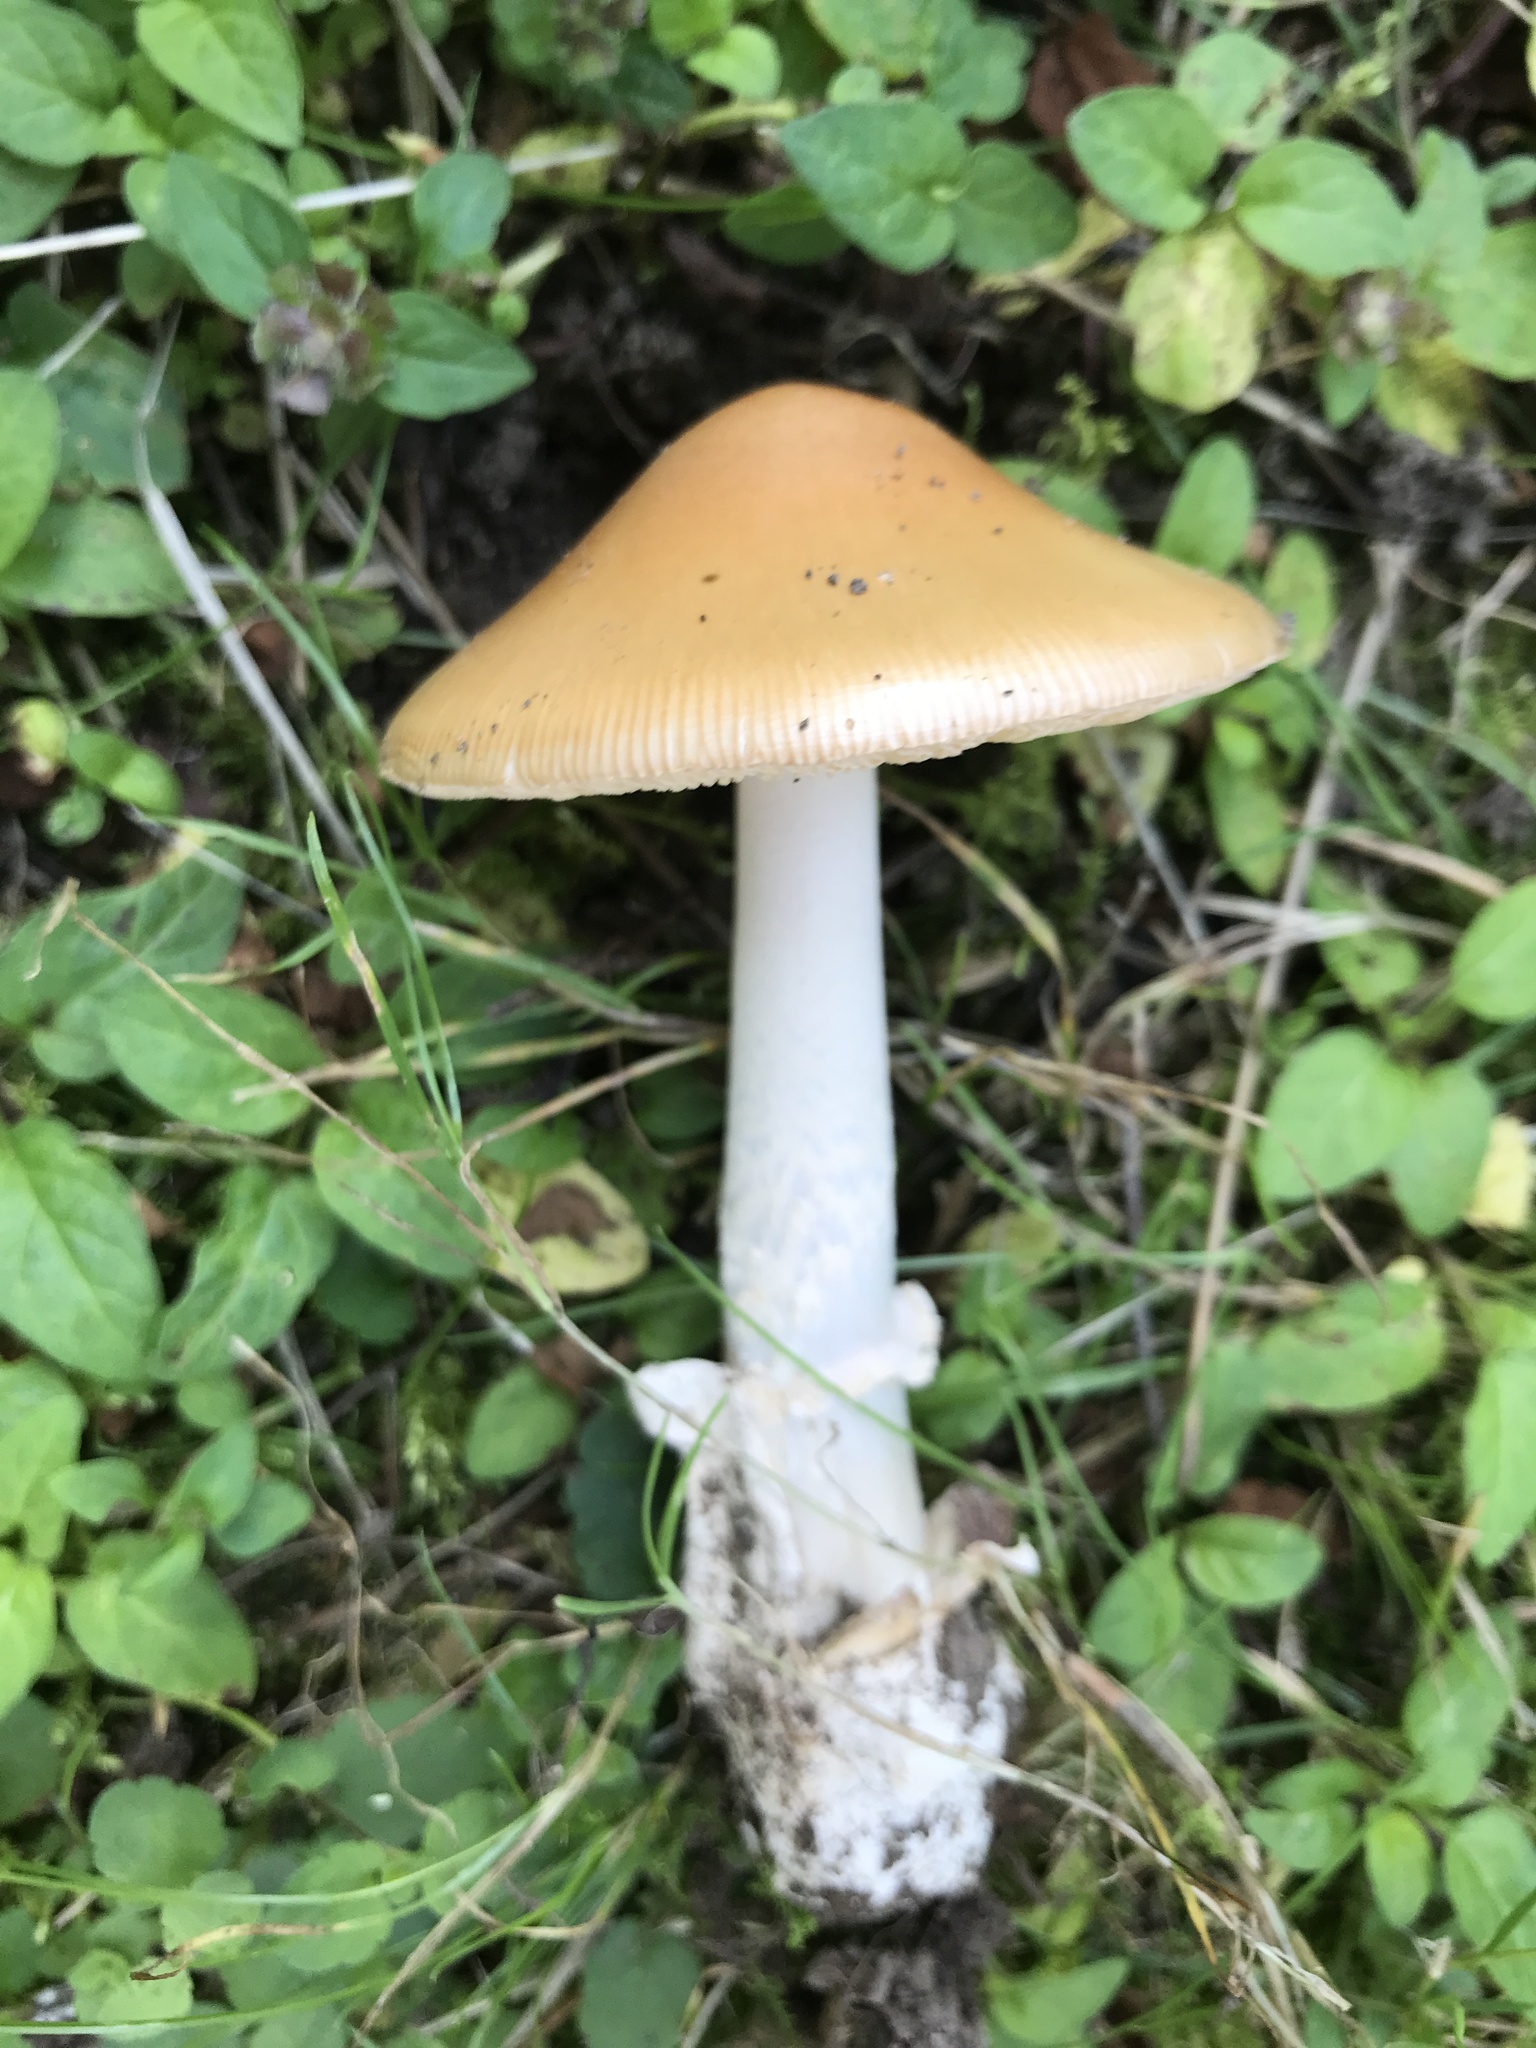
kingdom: Fungi
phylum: Basidiomycota
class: Agaricomycetes
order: Agaricales
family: Amanitaceae
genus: Amanita
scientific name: Amanita crocea
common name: Orange grisette
